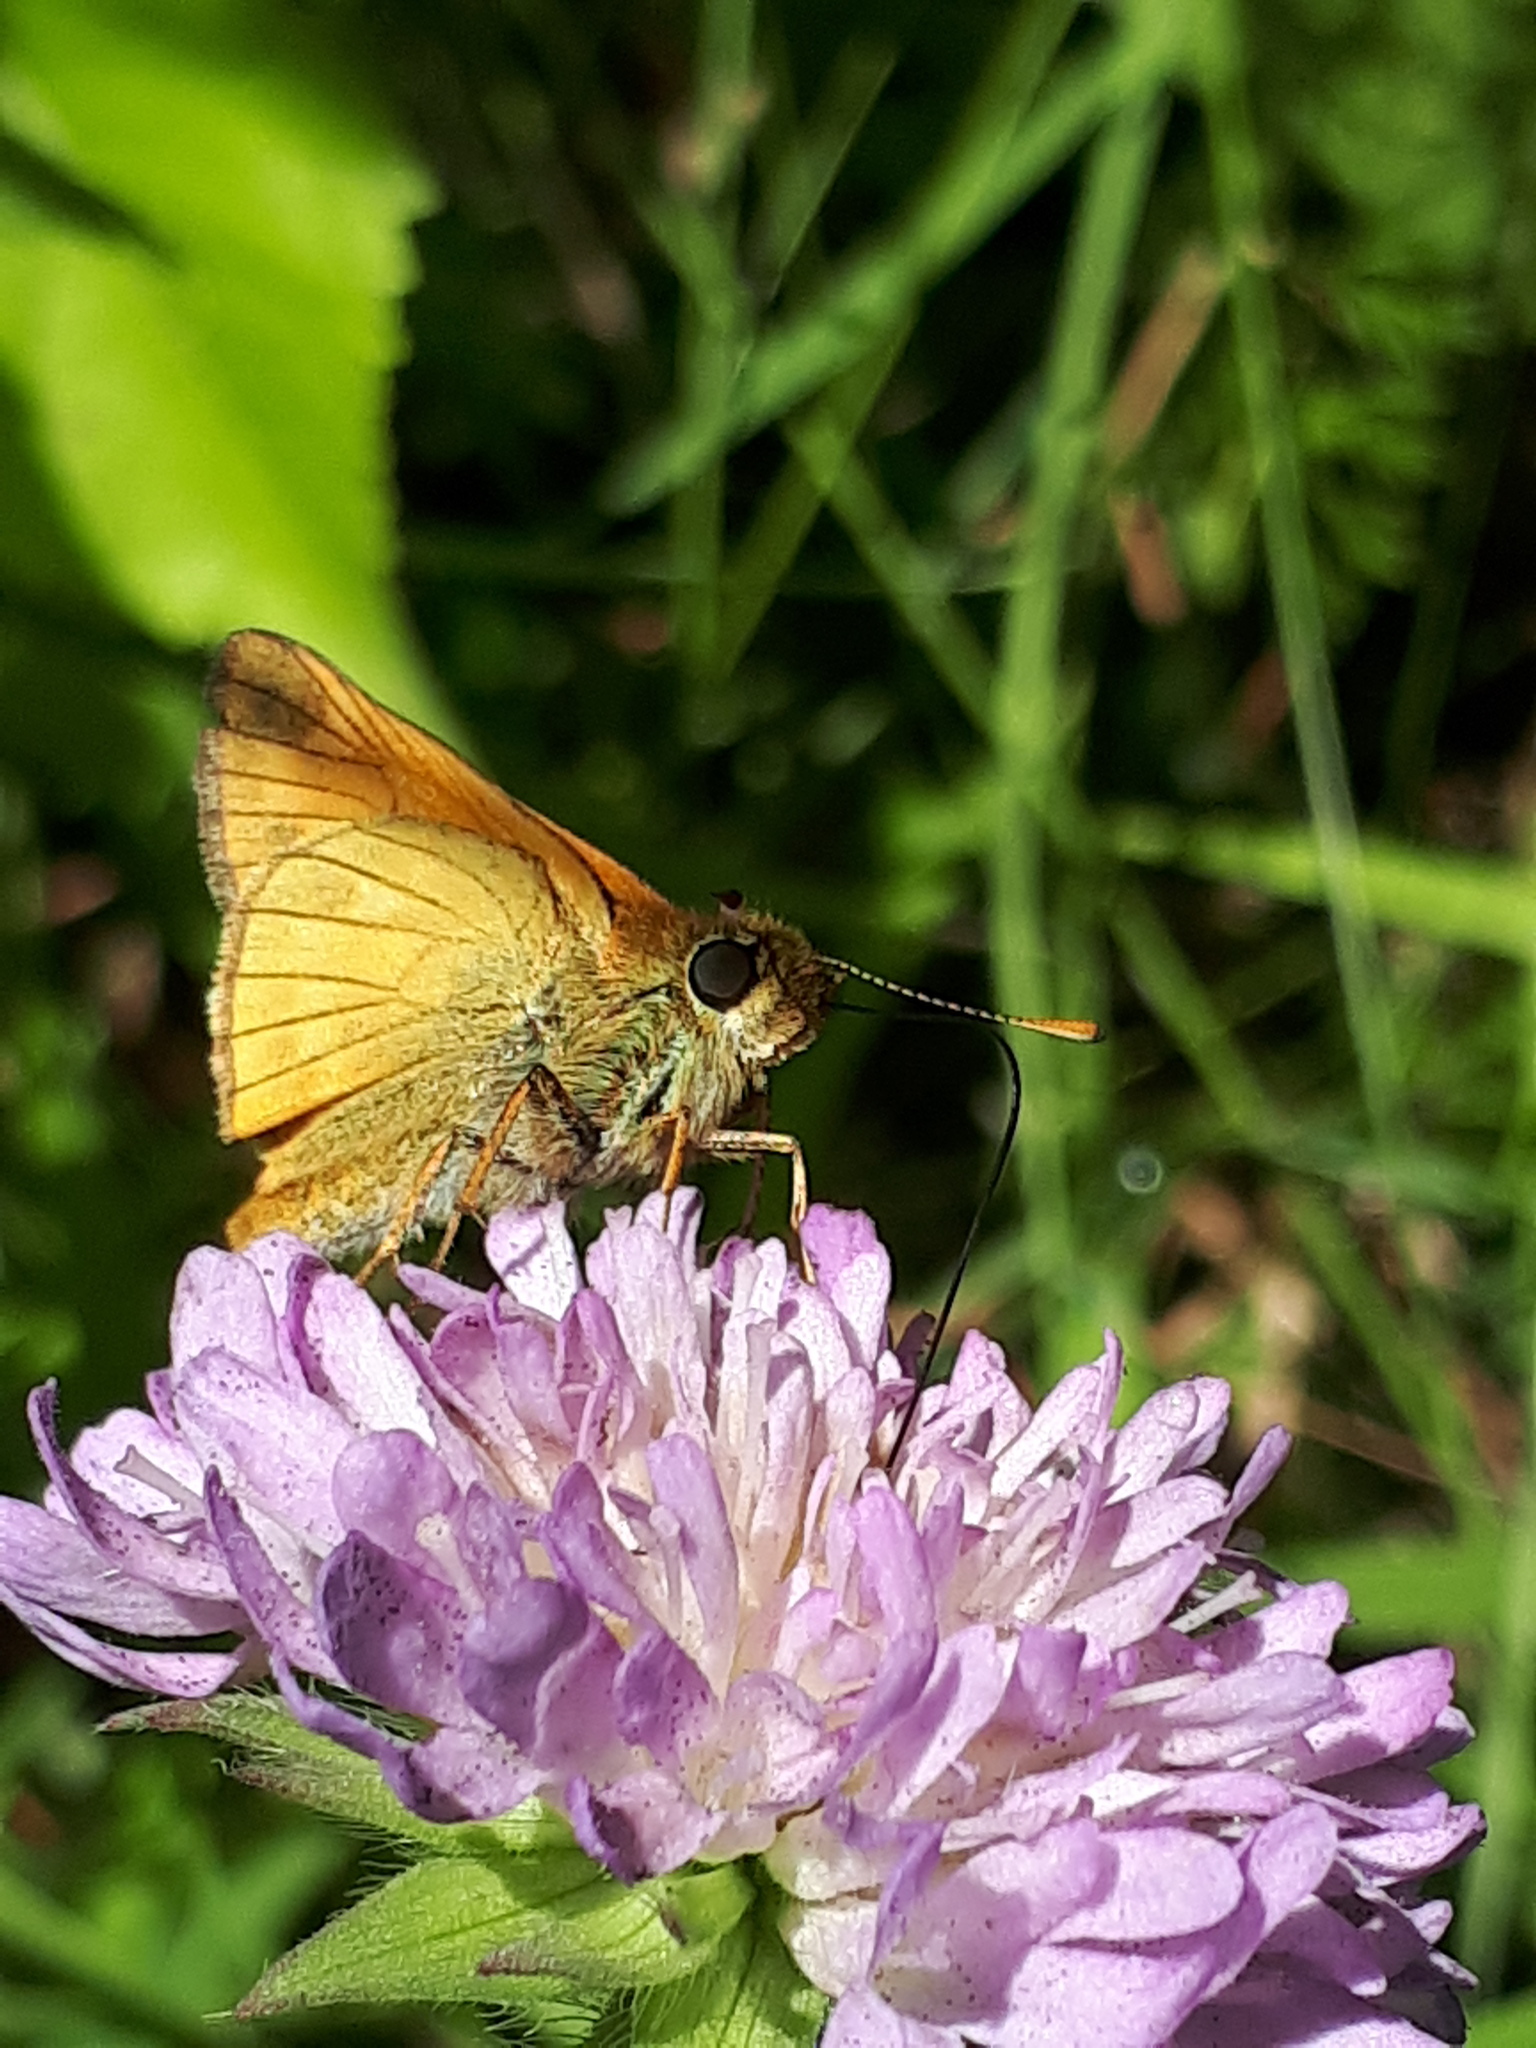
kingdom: Animalia
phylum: Arthropoda
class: Insecta
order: Lepidoptera
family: Hesperiidae
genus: Ochlodes
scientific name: Ochlodes venata
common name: Large skipper
